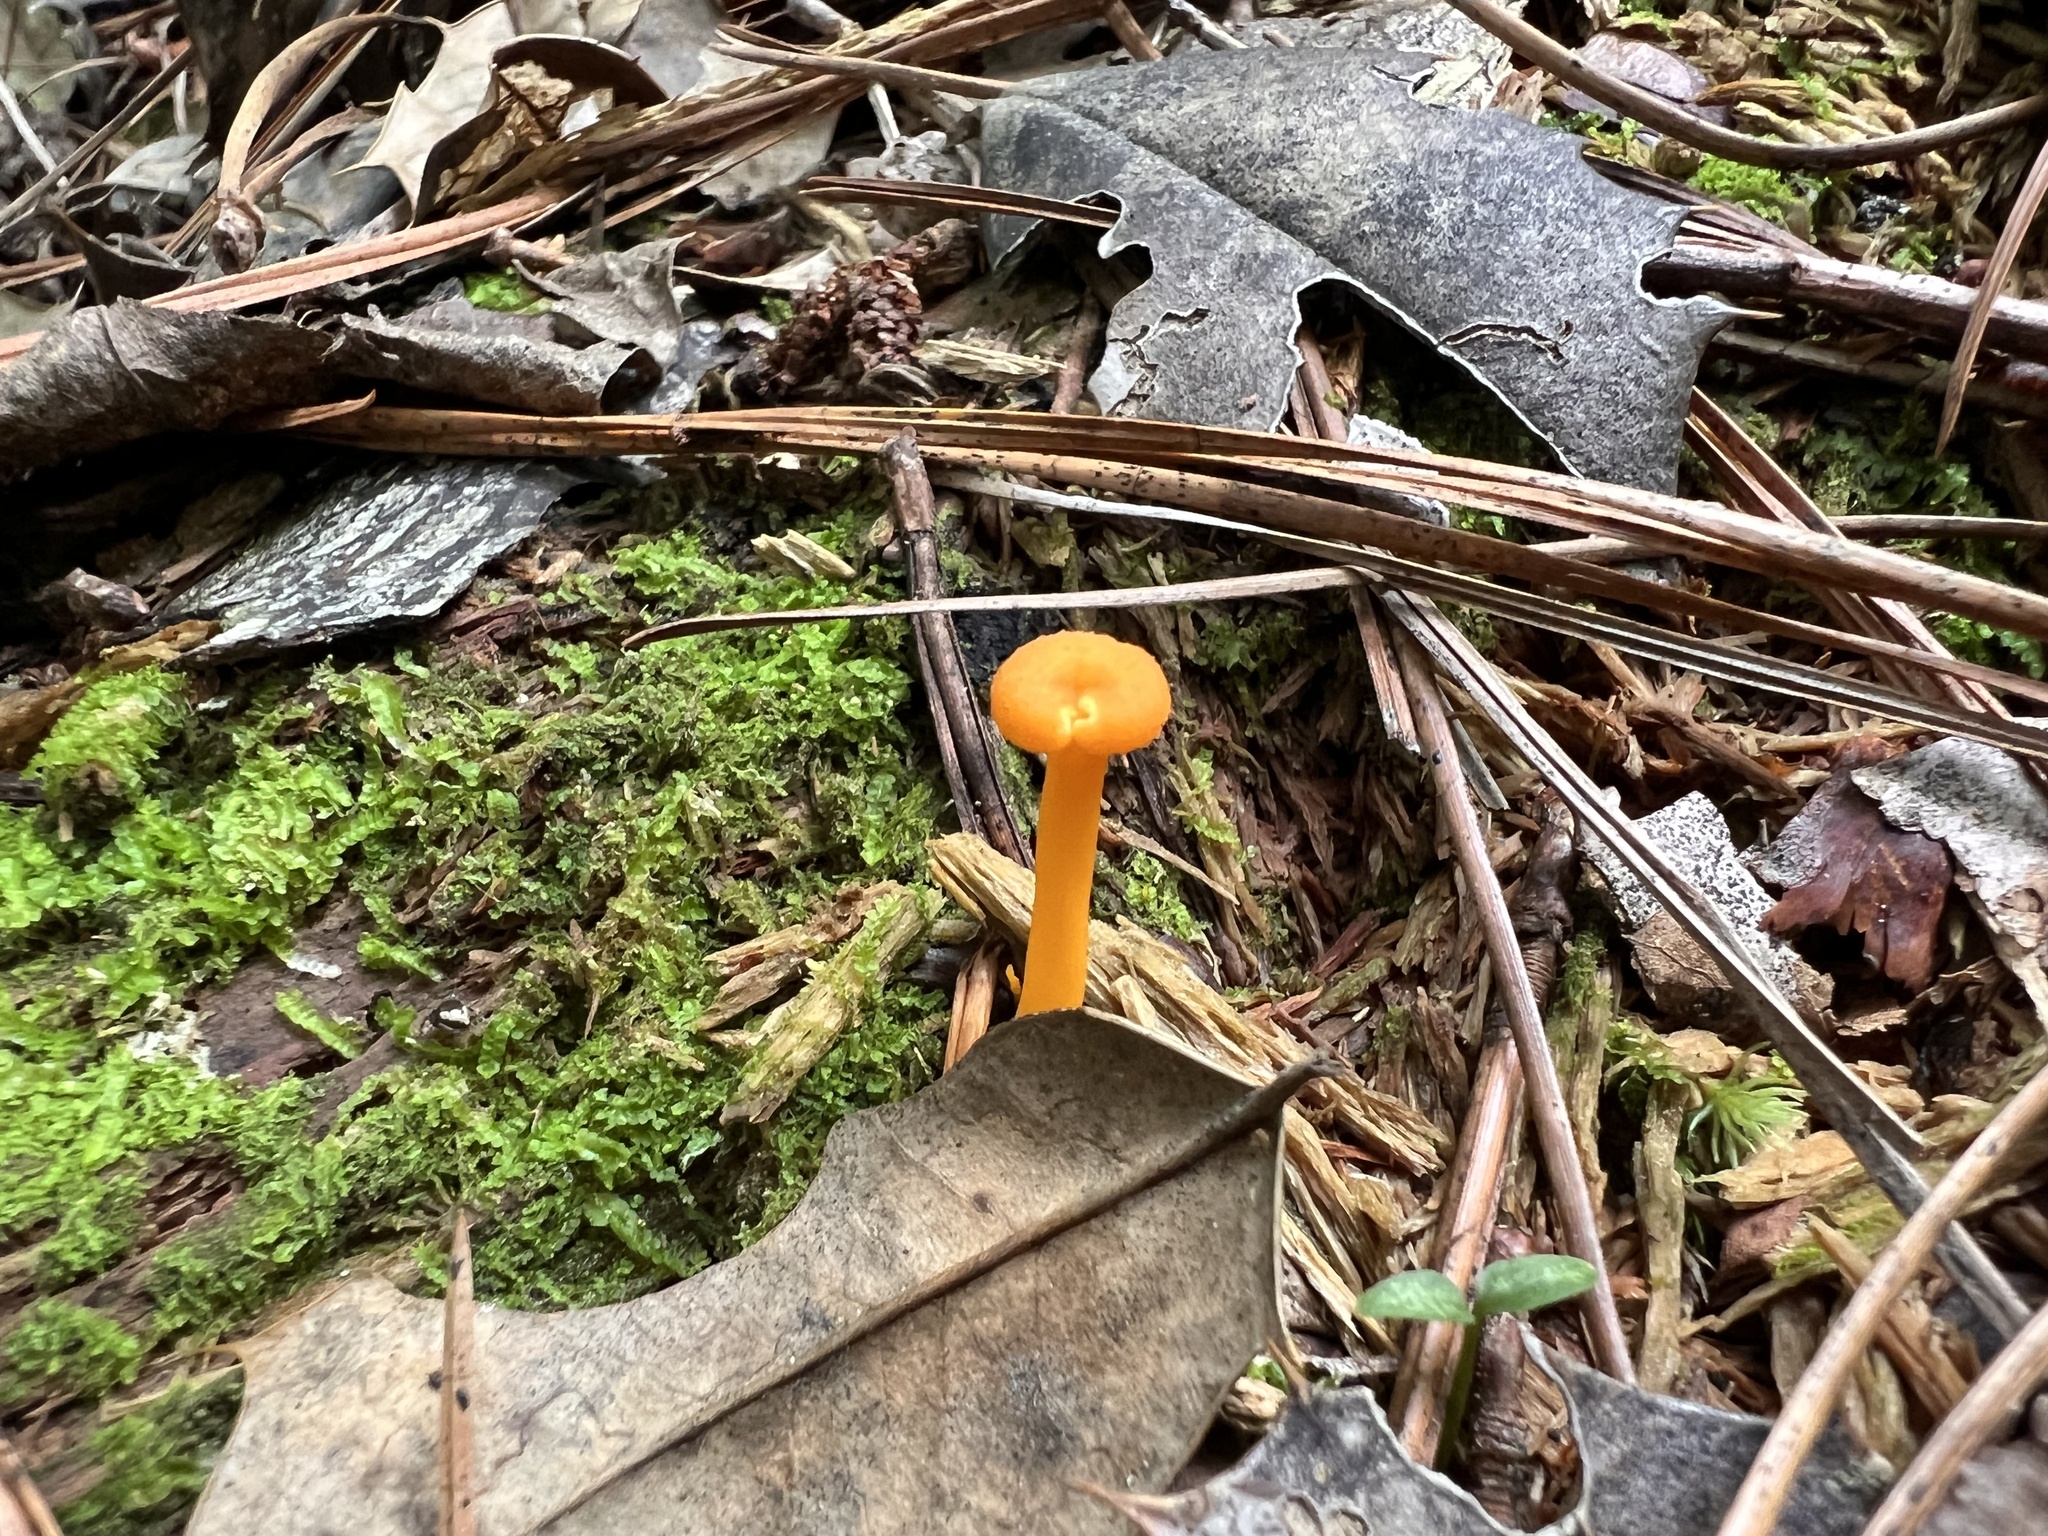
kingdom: Fungi
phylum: Basidiomycota
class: Agaricomycetes
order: Cantharellales
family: Hydnaceae
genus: Cantharellus
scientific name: Cantharellus minor
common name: Small chanterelle
